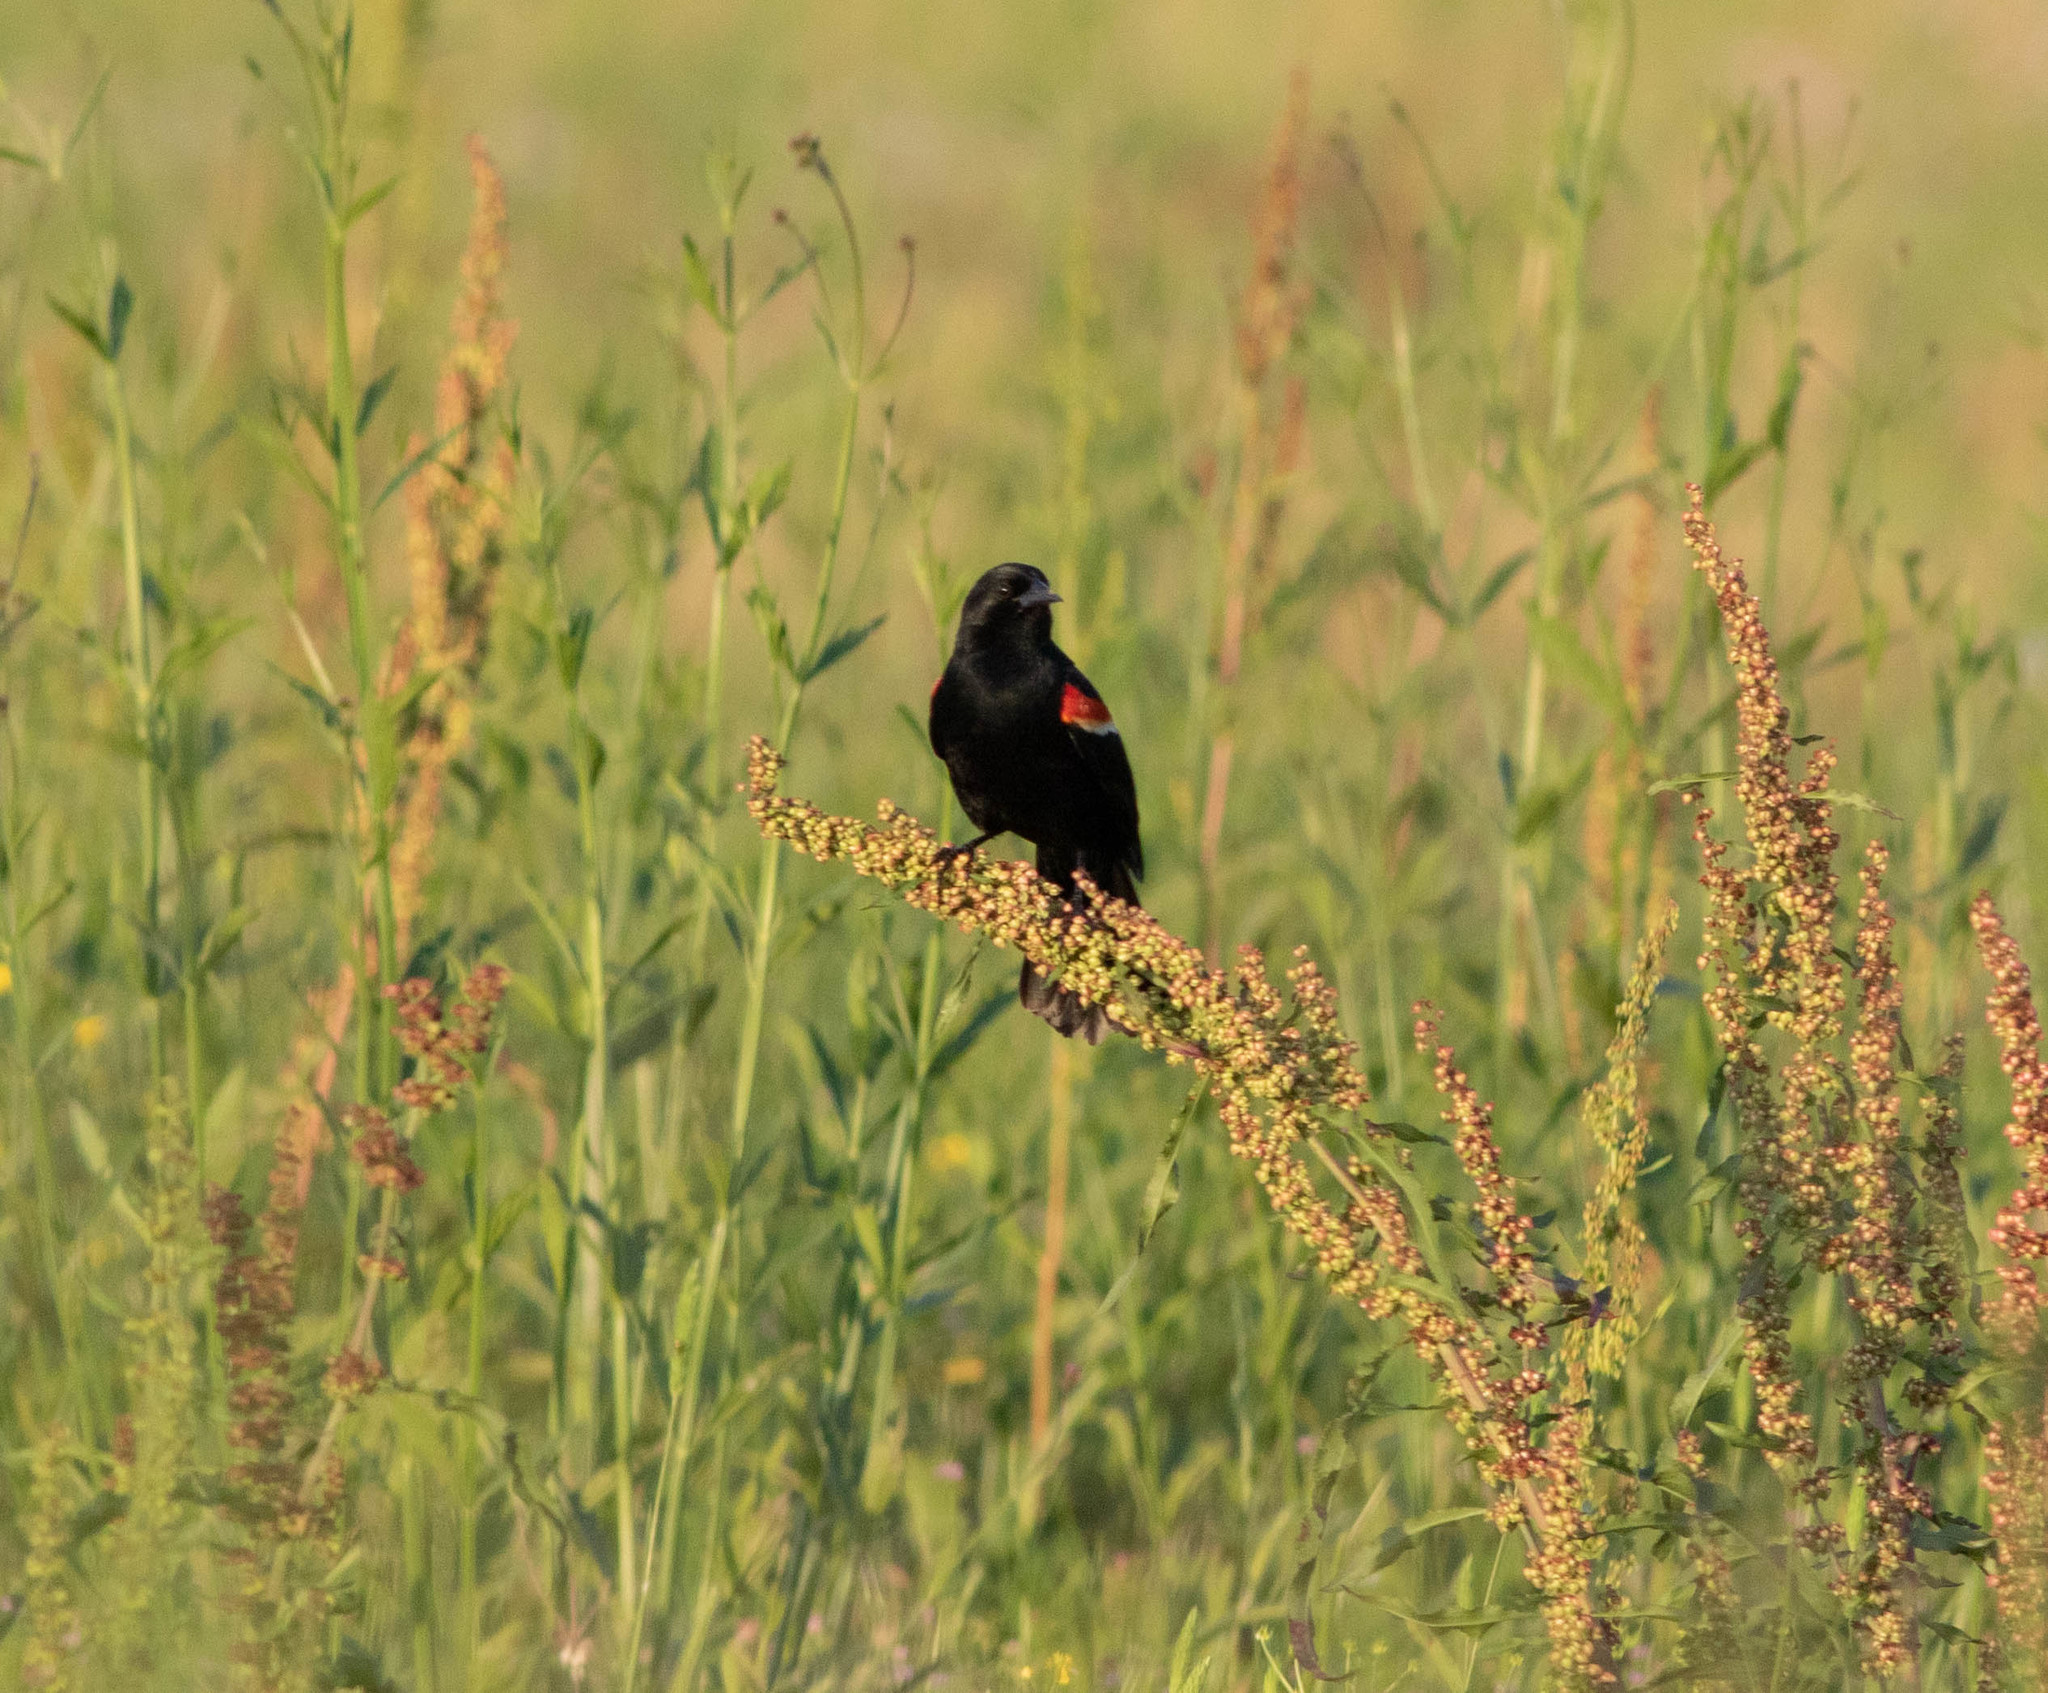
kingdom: Animalia
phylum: Chordata
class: Aves
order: Passeriformes
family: Icteridae
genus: Agelaius
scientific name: Agelaius phoeniceus
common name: Red-winged blackbird
